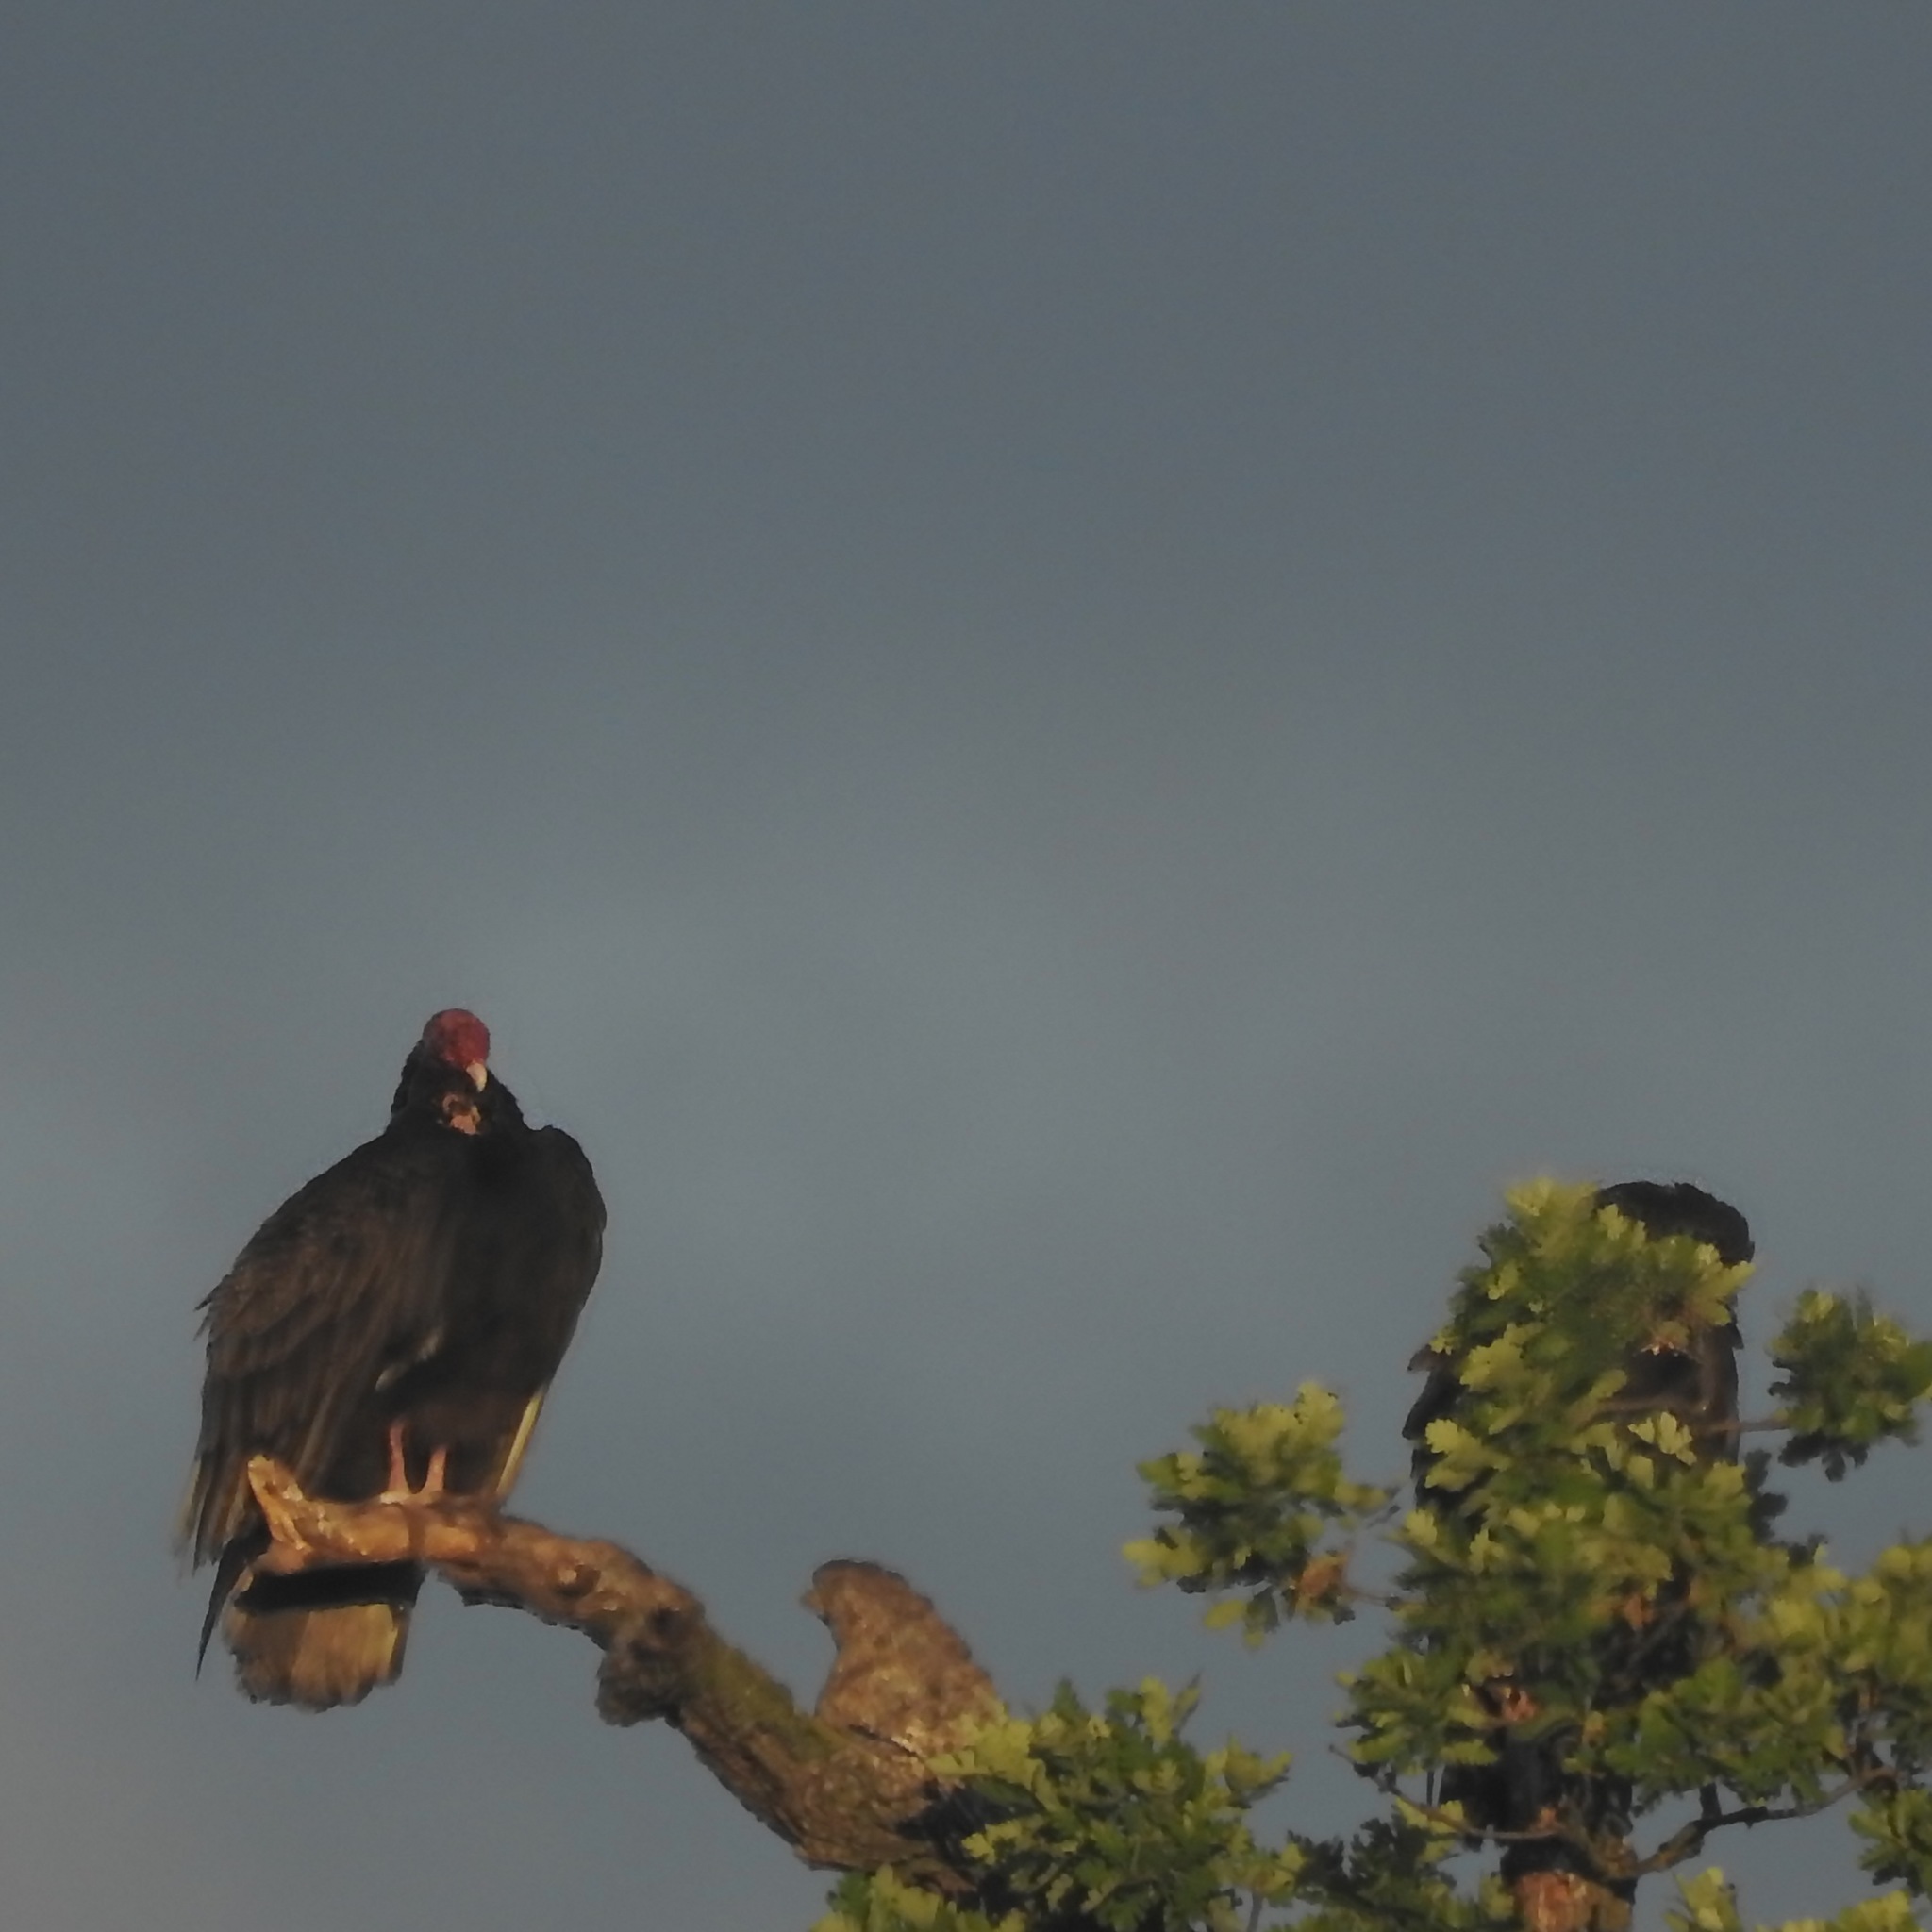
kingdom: Animalia
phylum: Chordata
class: Aves
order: Accipitriformes
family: Cathartidae
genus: Cathartes
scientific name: Cathartes aura
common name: Turkey vulture
